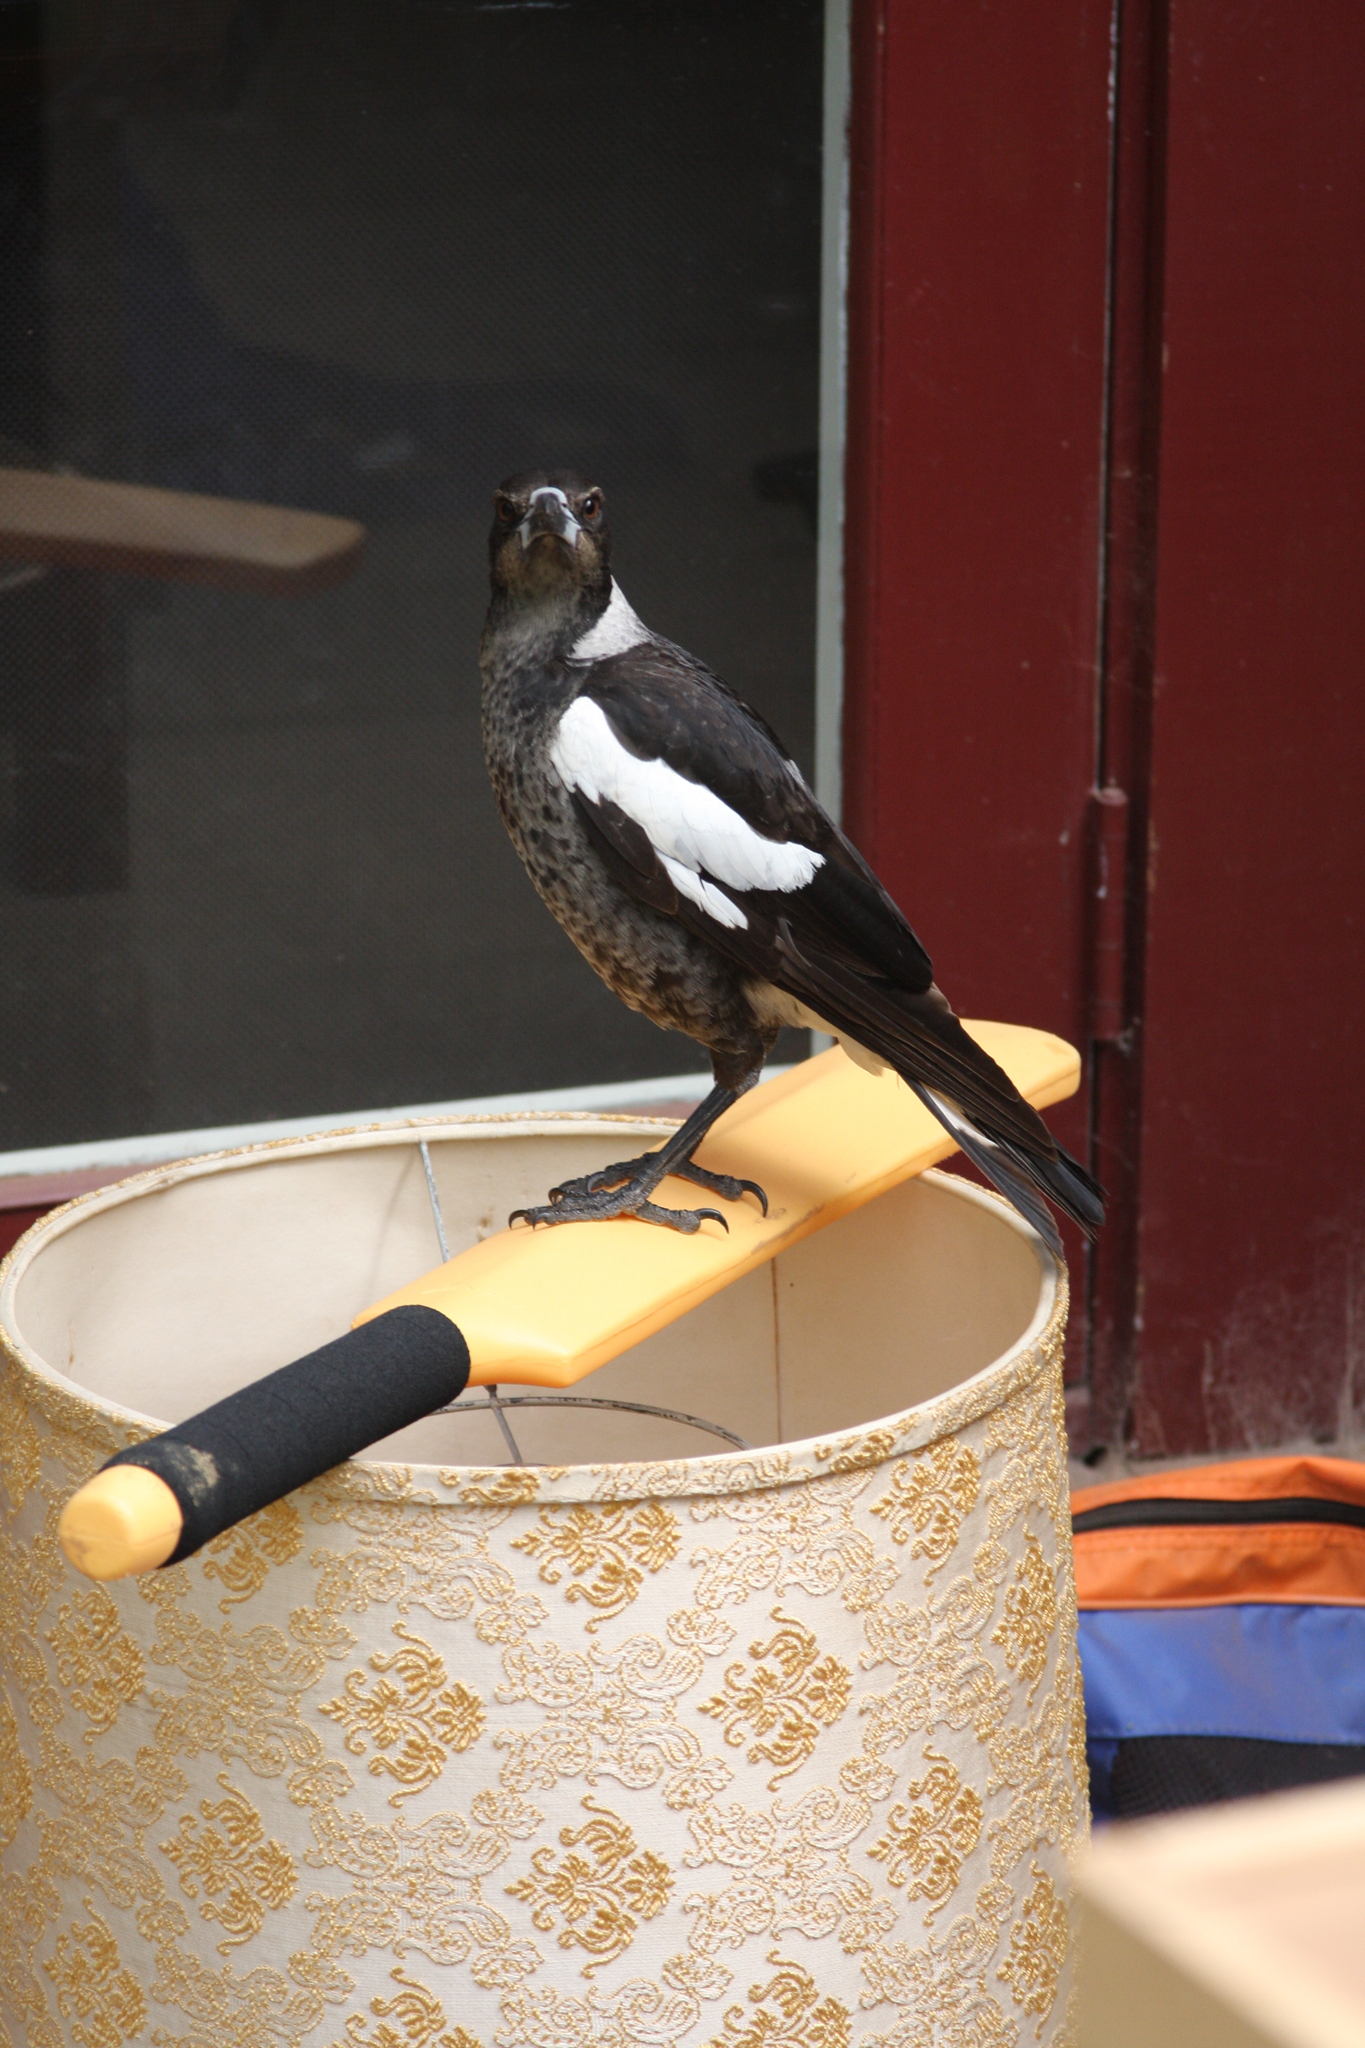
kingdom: Animalia
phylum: Chordata
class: Aves
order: Passeriformes
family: Cracticidae
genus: Gymnorhina
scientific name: Gymnorhina tibicen
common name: Australian magpie
